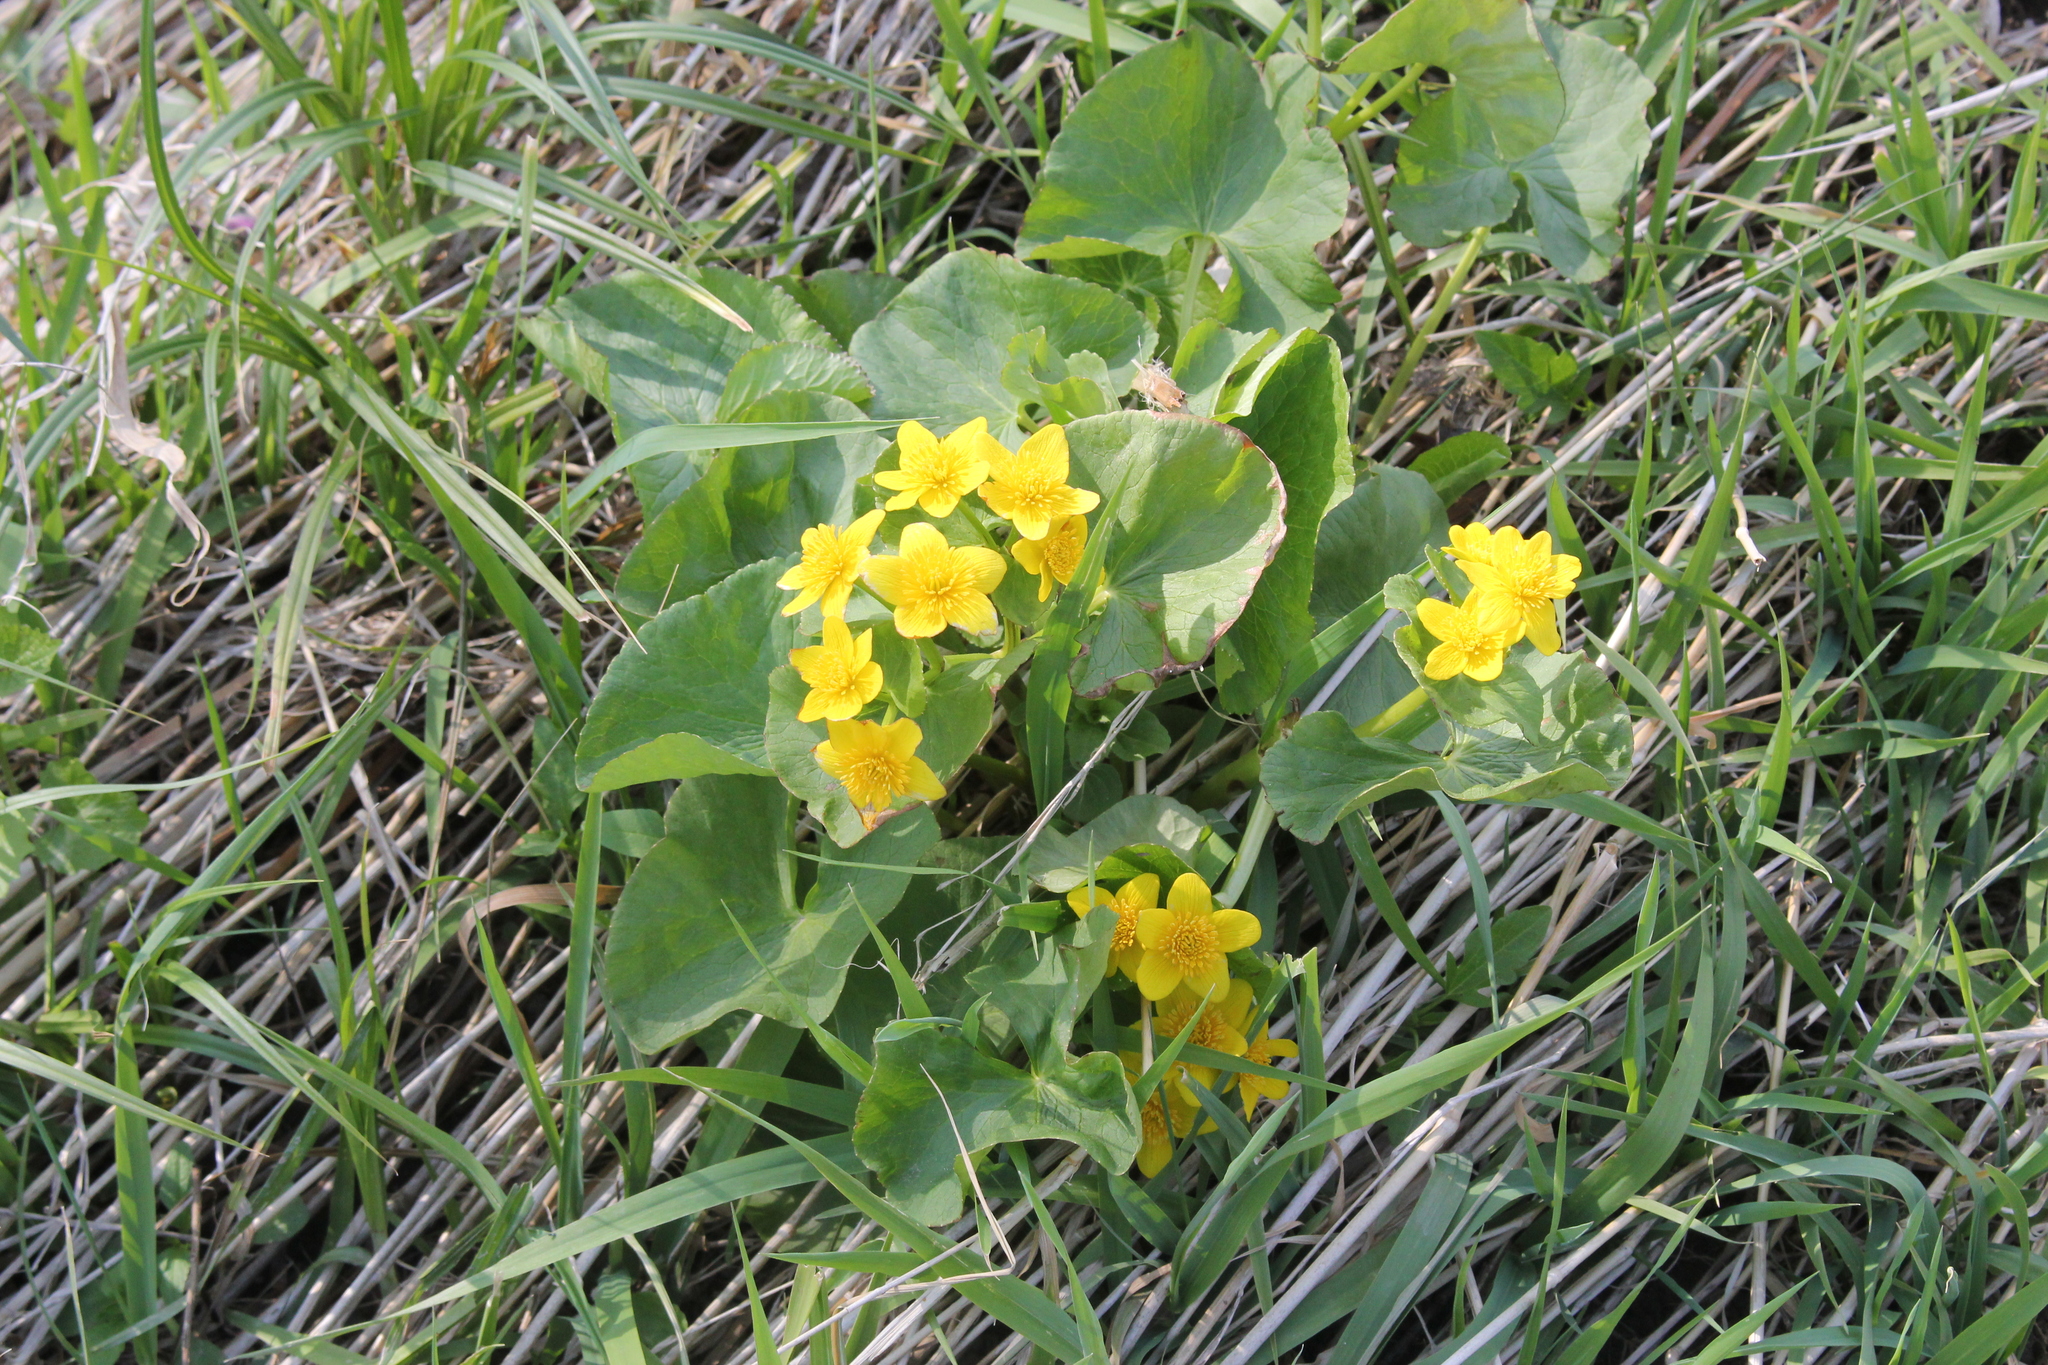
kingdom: Plantae
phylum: Tracheophyta
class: Magnoliopsida
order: Ranunculales
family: Ranunculaceae
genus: Caltha
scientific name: Caltha palustris
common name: Marsh marigold
